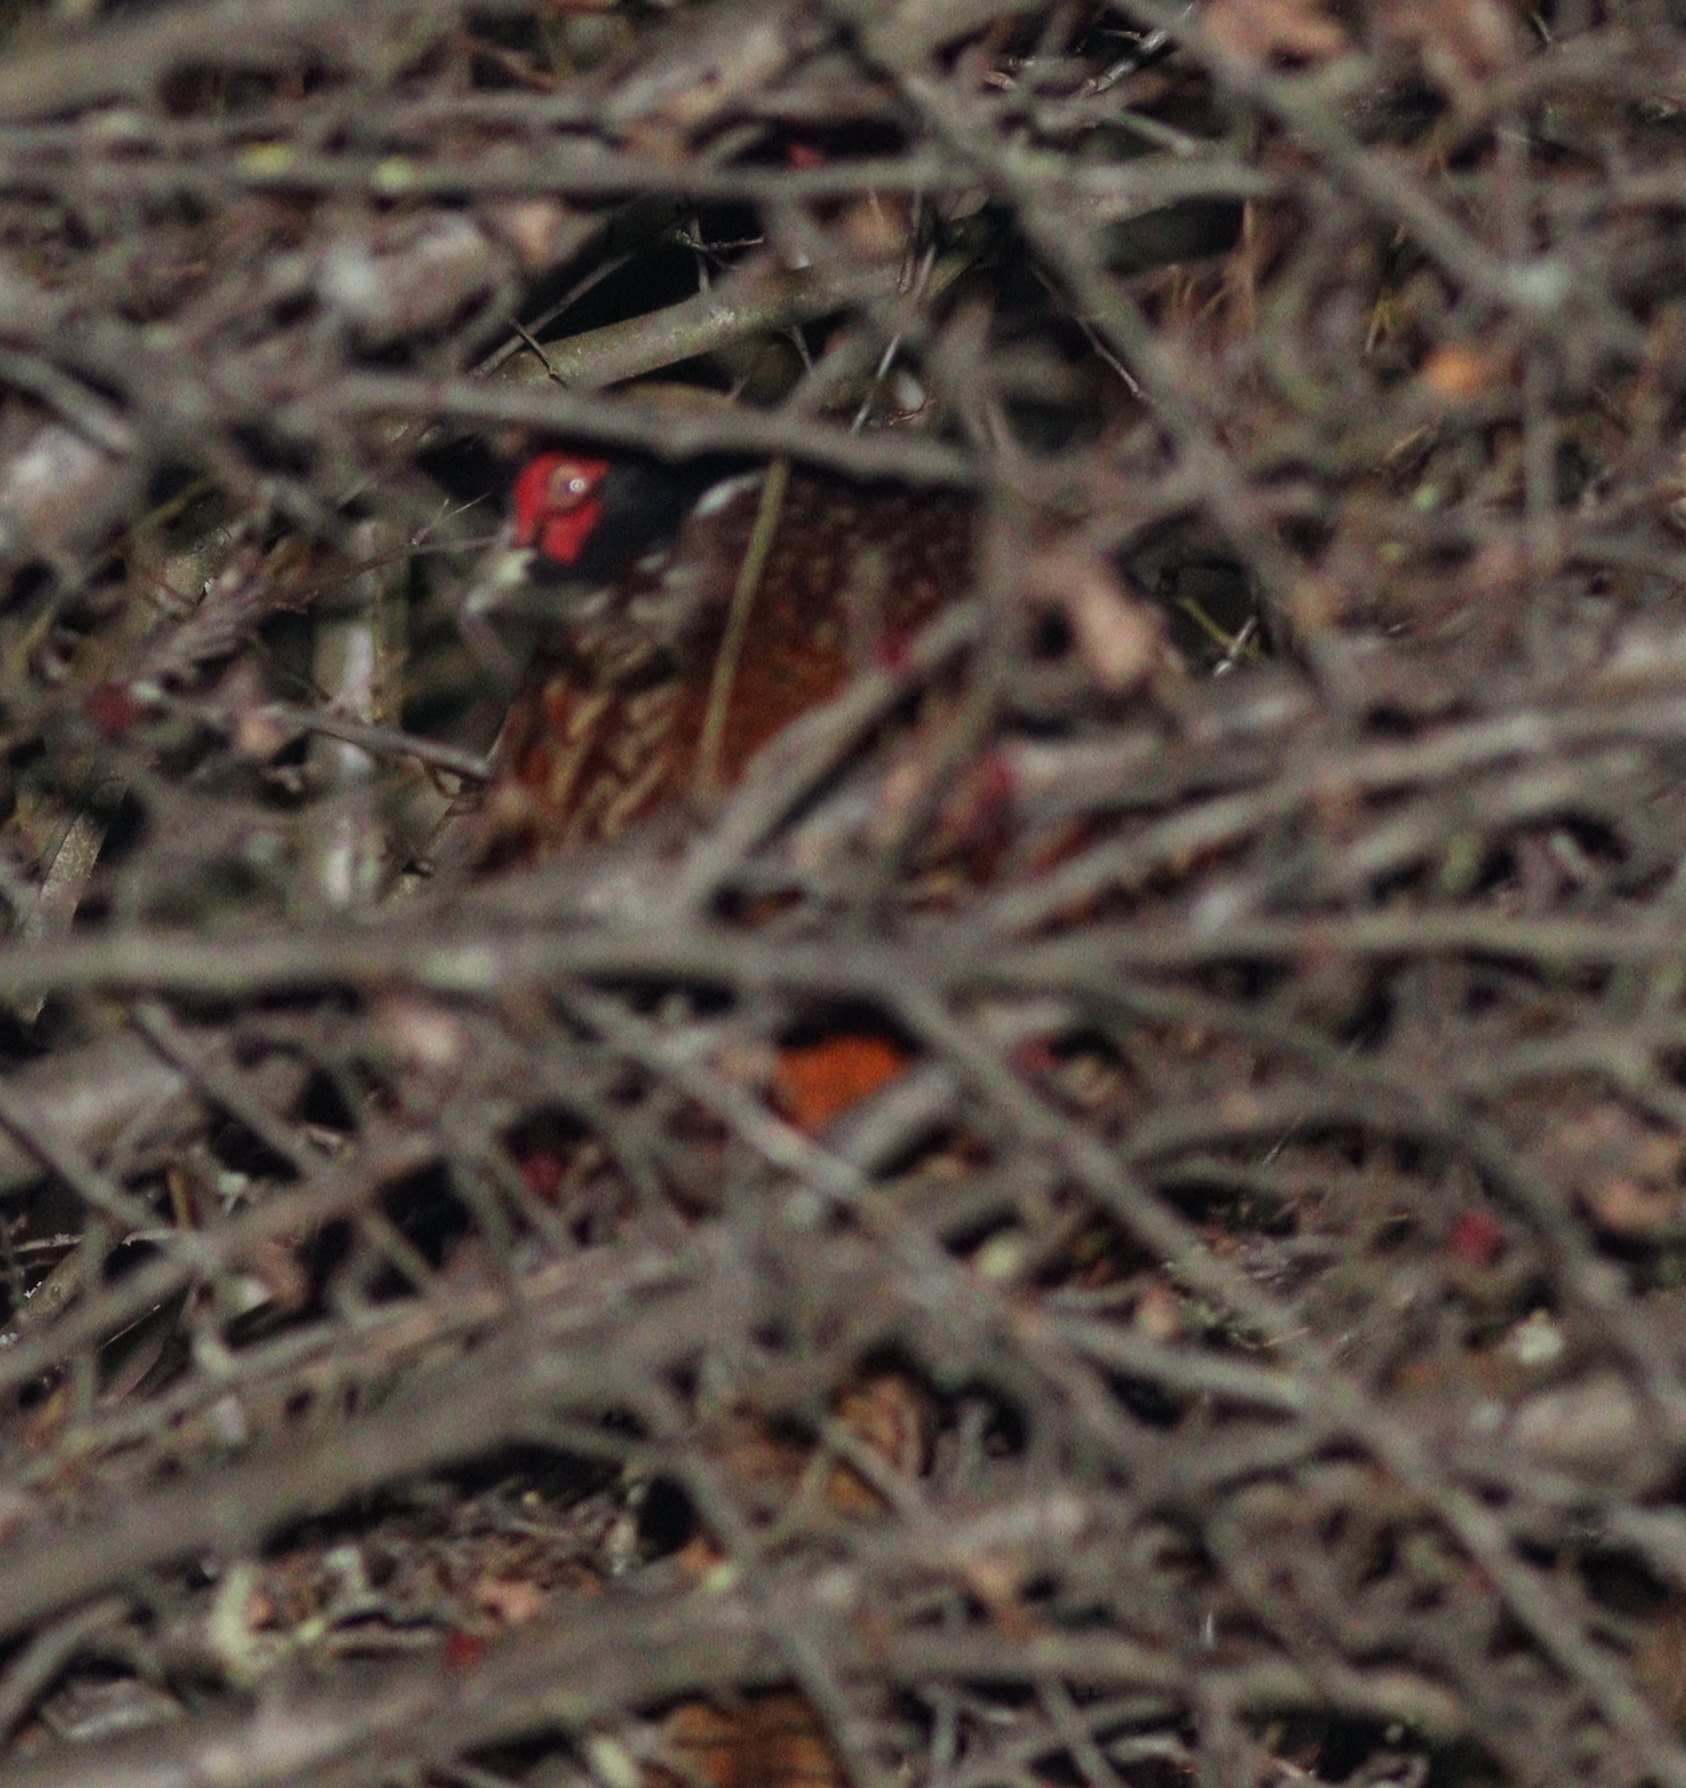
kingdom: Animalia
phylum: Chordata
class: Aves
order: Galliformes
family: Phasianidae
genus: Phasianus
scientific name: Phasianus colchicus
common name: Common pheasant
